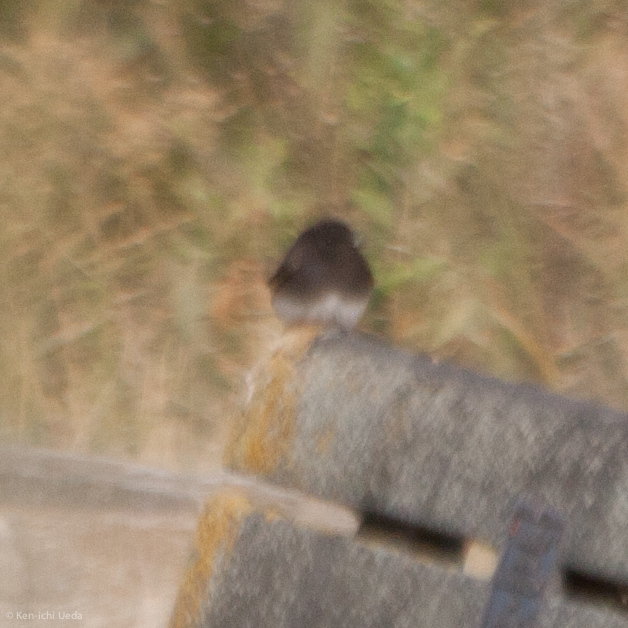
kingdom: Animalia
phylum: Chordata
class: Aves
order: Passeriformes
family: Tyrannidae
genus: Sayornis
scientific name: Sayornis nigricans
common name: Black phoebe
